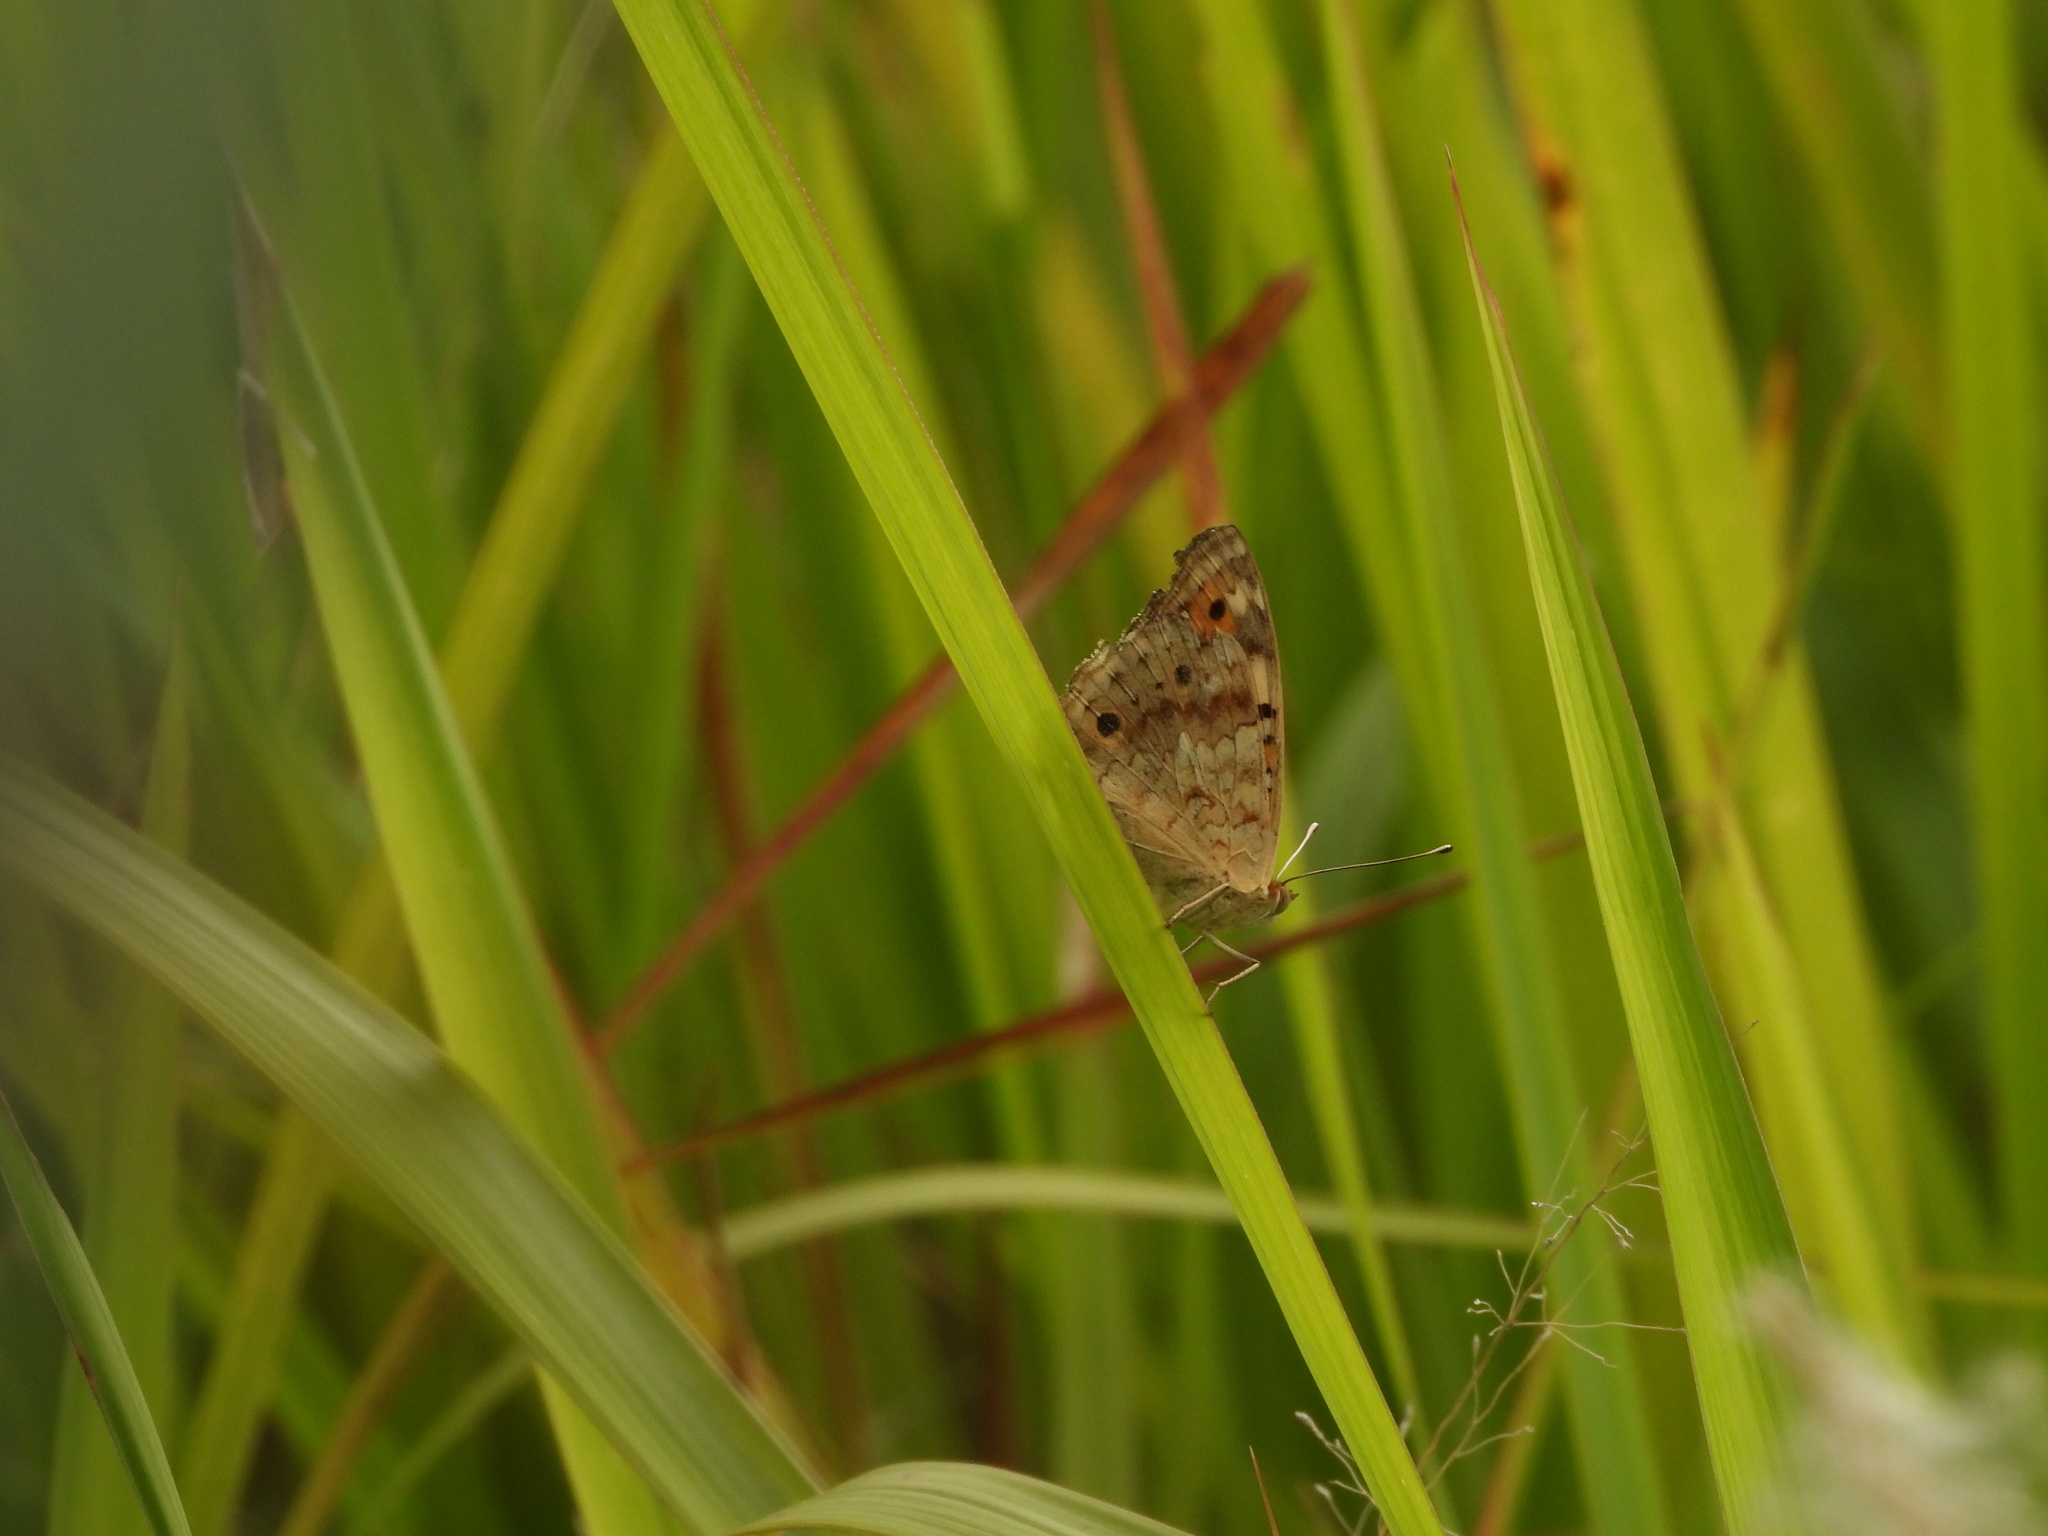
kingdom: Animalia
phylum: Arthropoda
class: Insecta
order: Lepidoptera
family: Nymphalidae
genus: Junonia
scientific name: Junonia orithya
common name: Blue pansy
